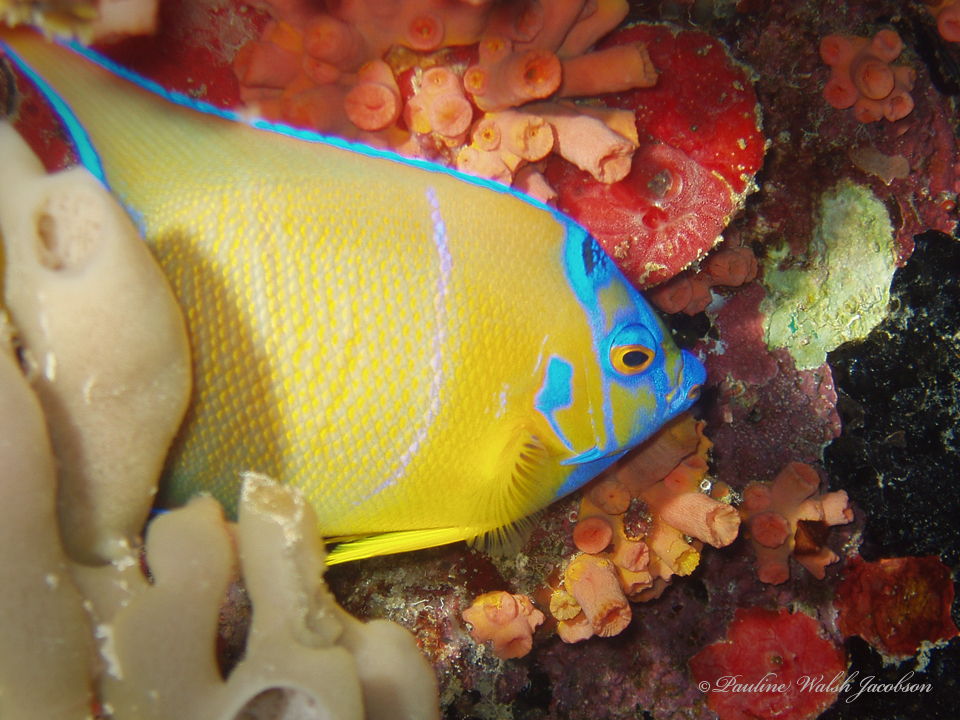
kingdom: Animalia
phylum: Chordata
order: Perciformes
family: Pomacanthidae
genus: Holacanthus
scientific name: Holacanthus ciliaris
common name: Queen angelfish
